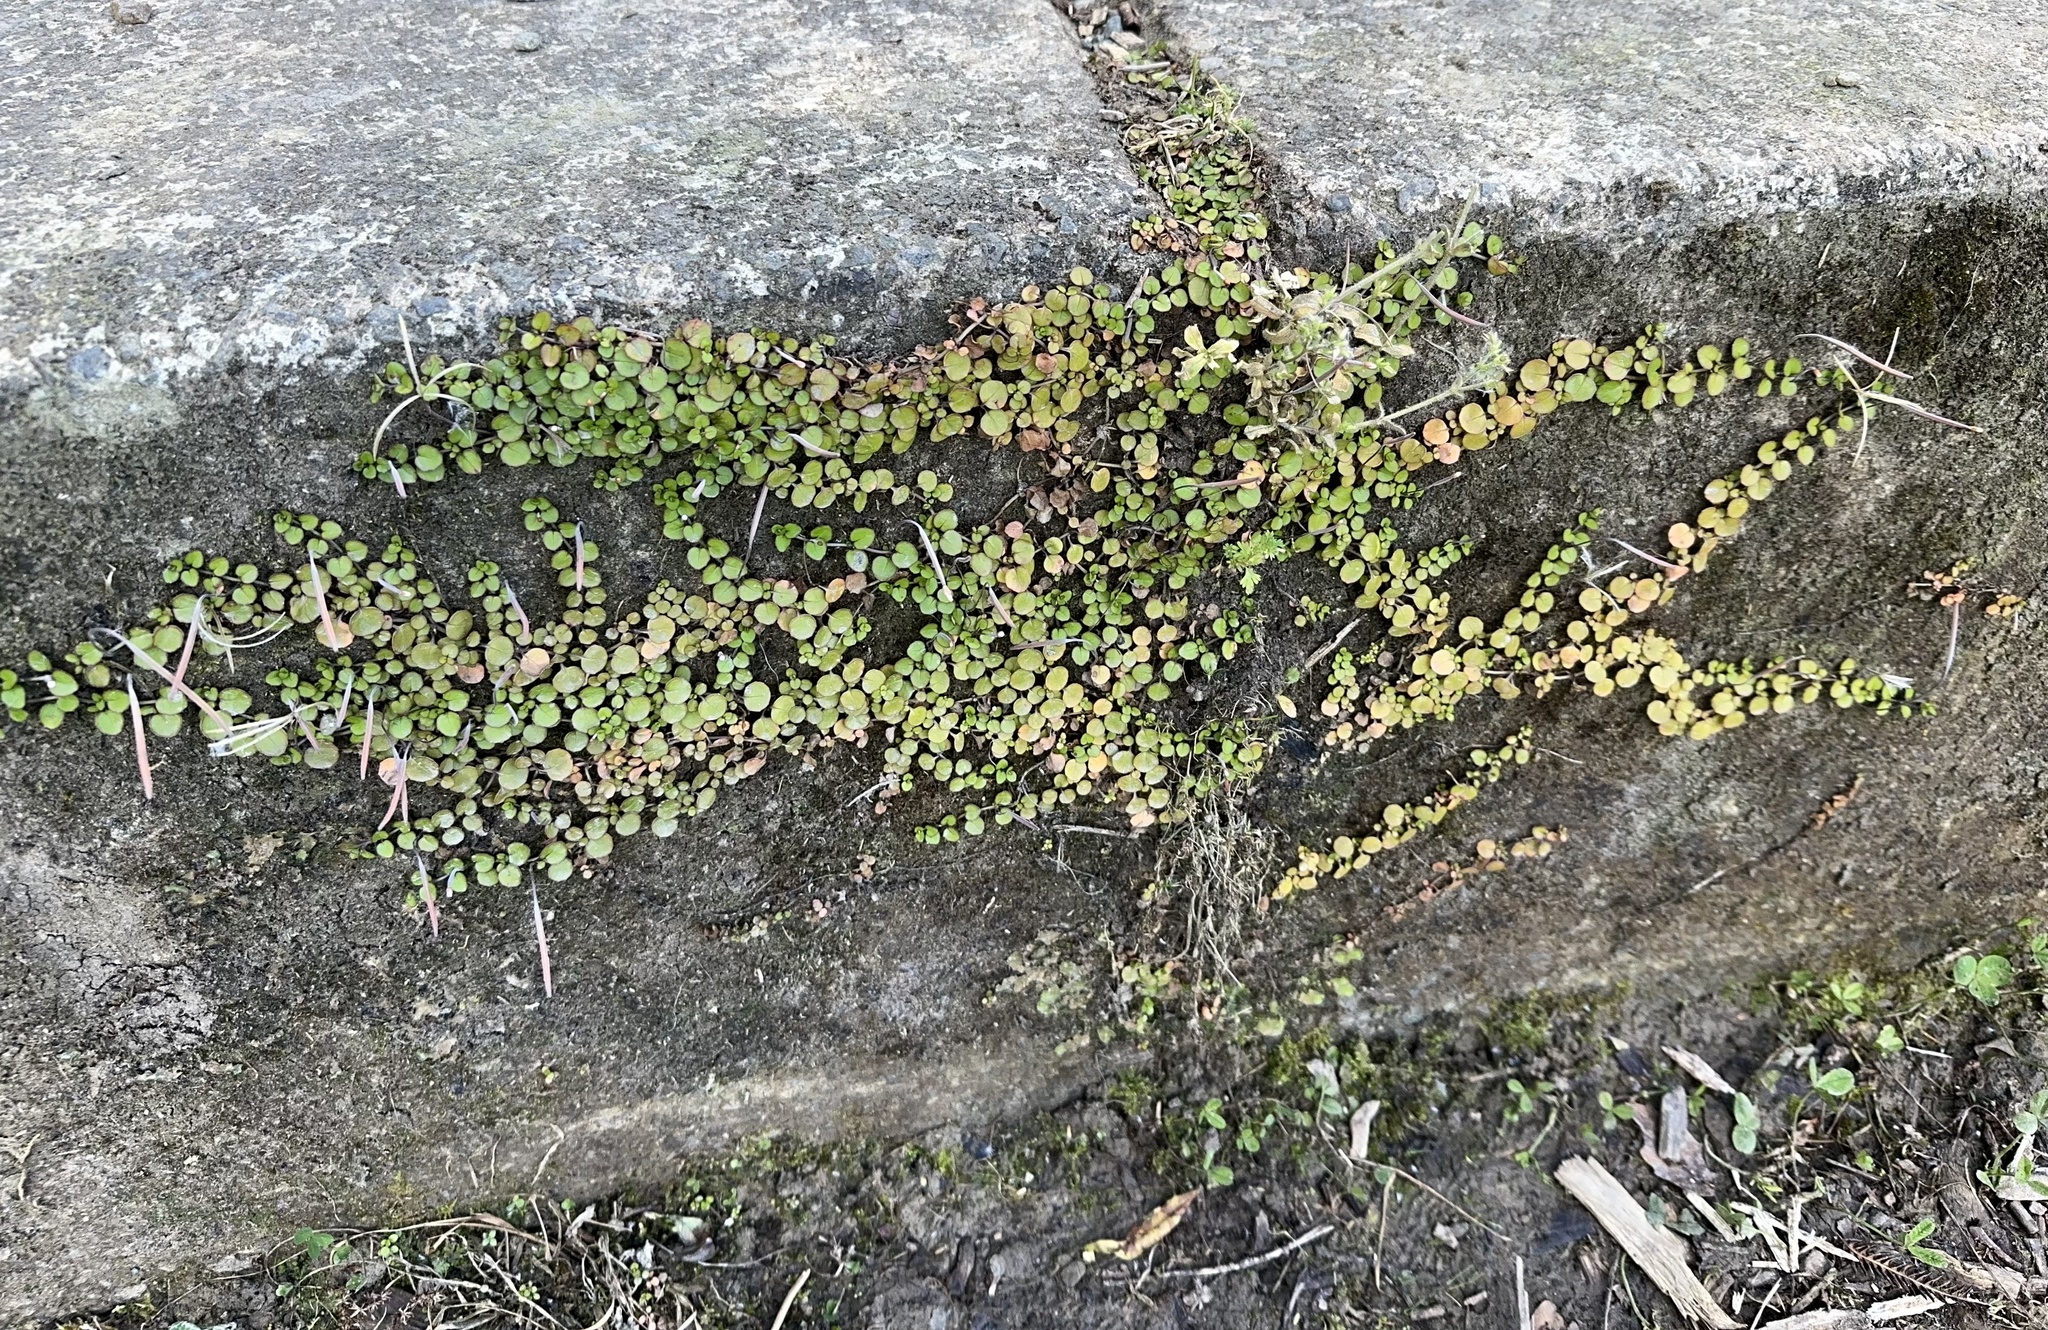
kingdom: Plantae
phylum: Tracheophyta
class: Magnoliopsida
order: Myrtales
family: Onagraceae
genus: Epilobium
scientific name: Epilobium nummularifolium
